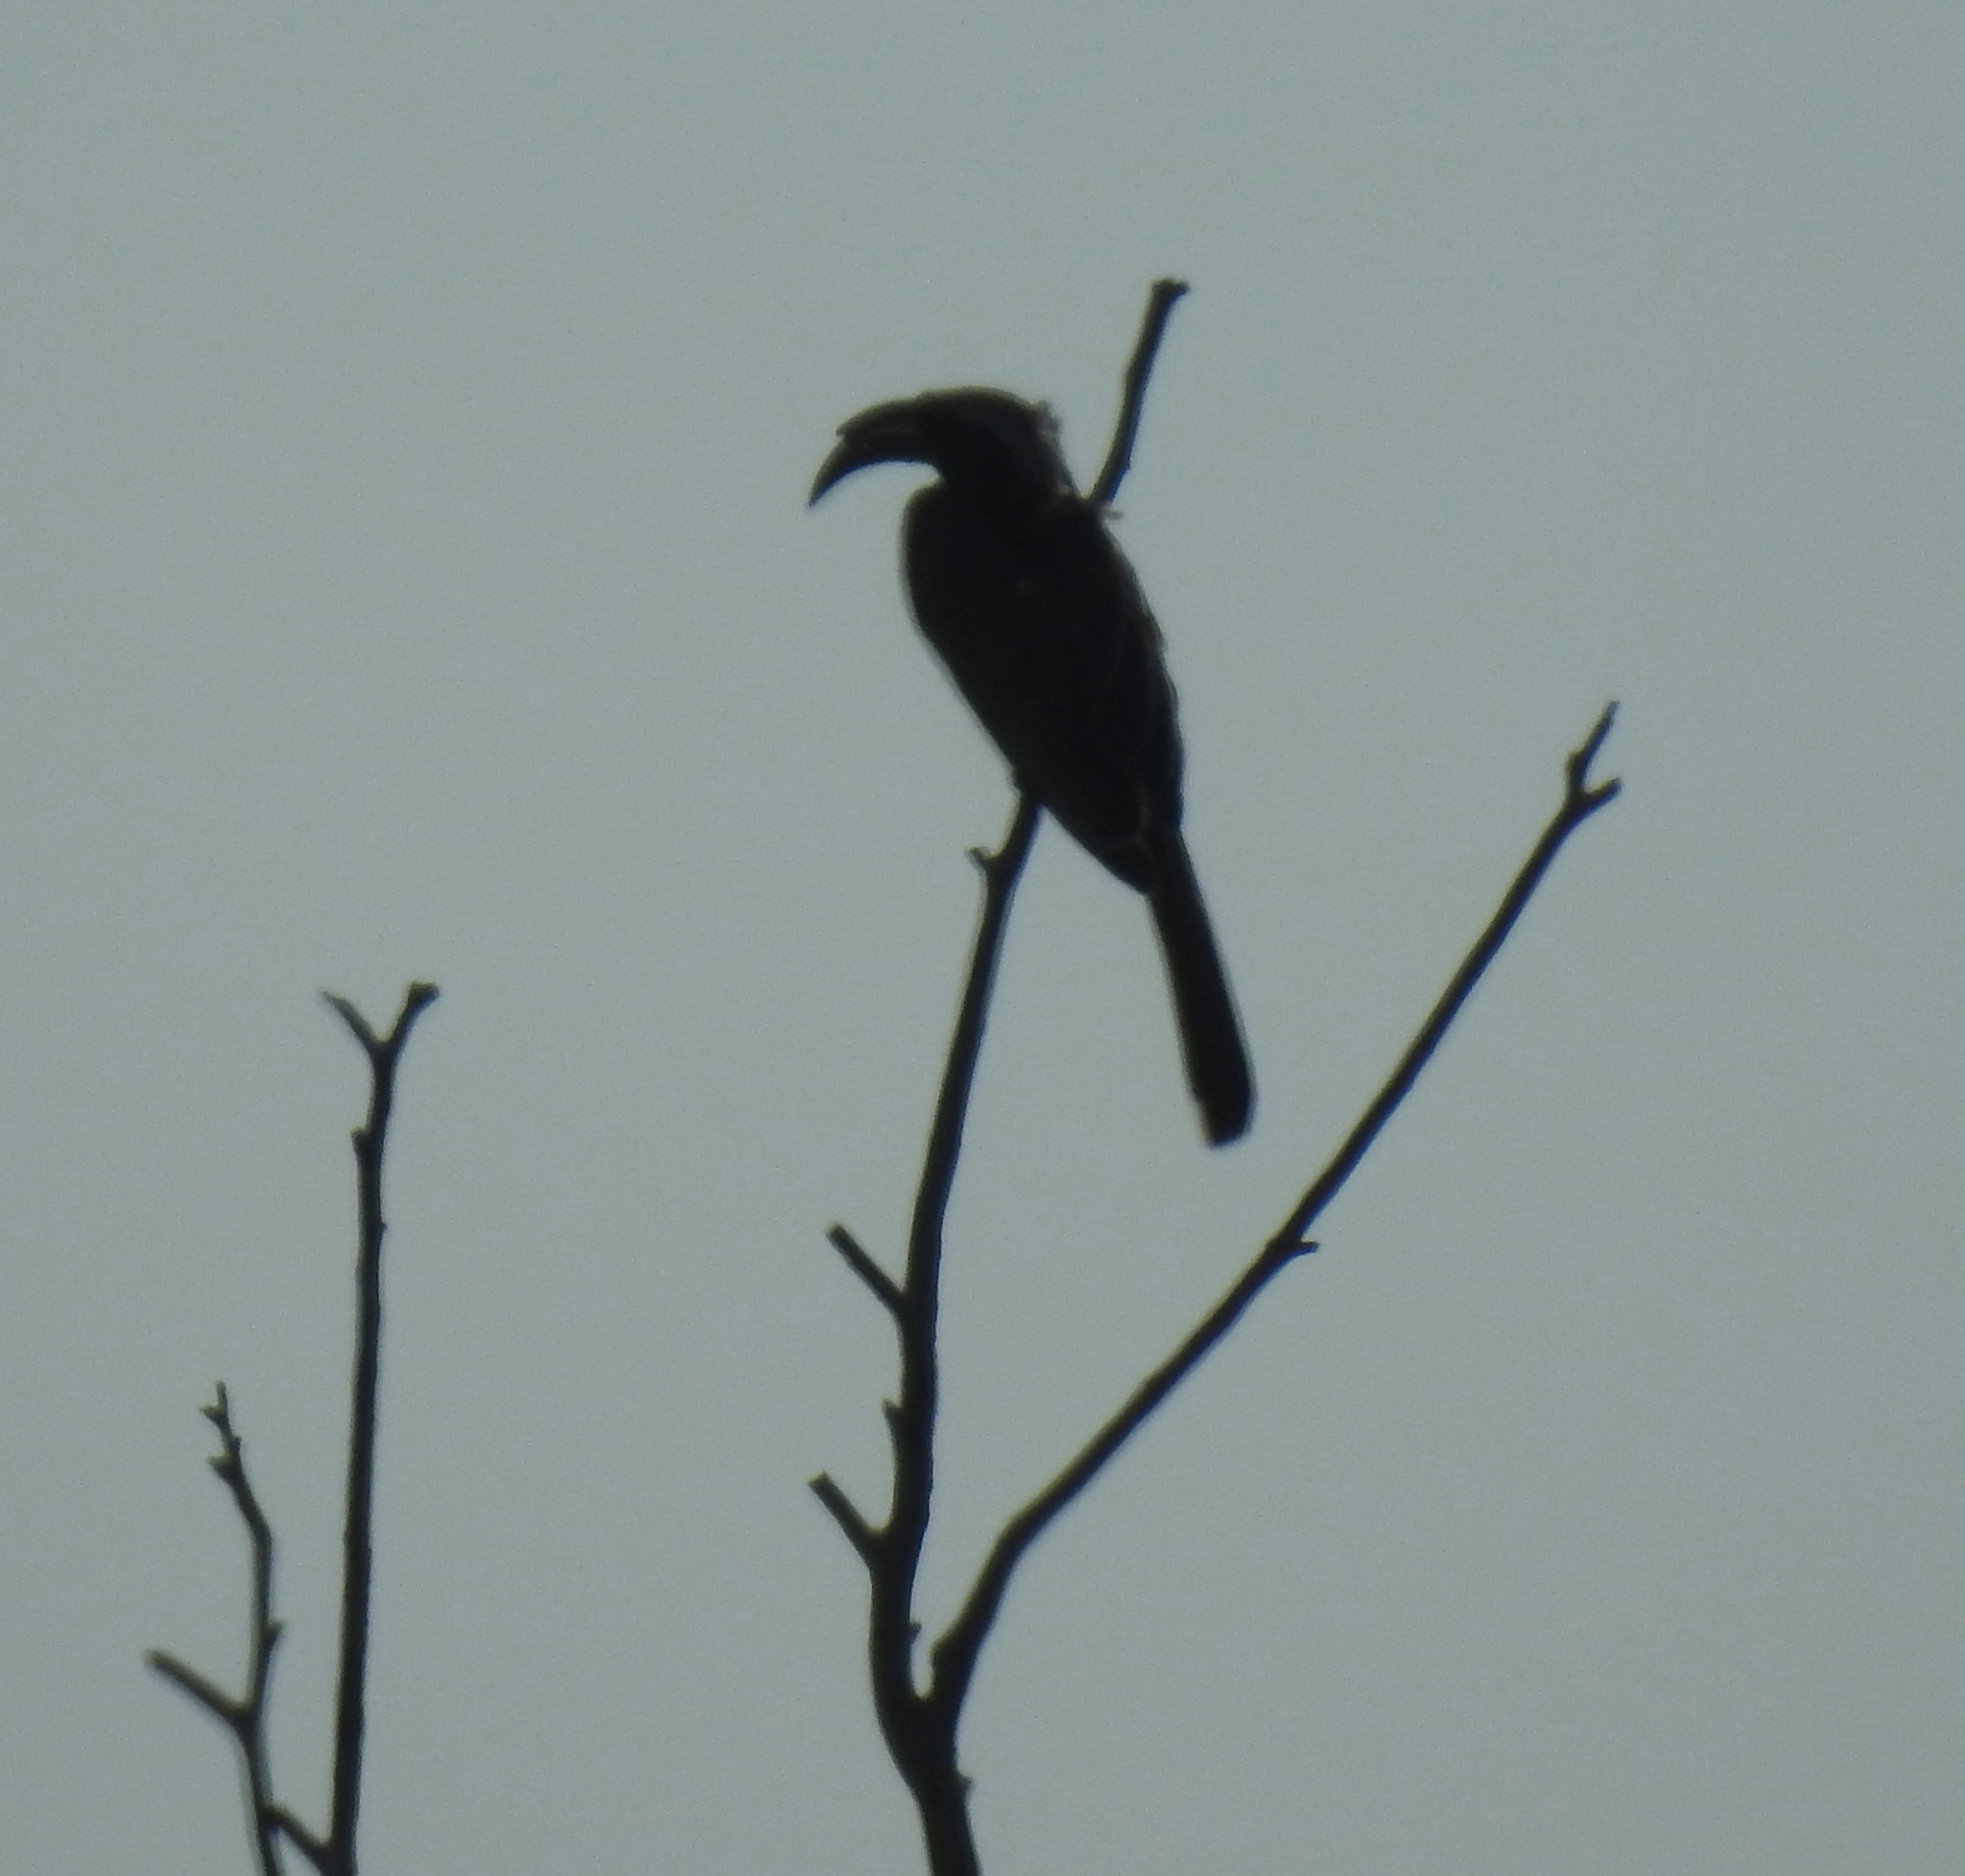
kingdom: Animalia
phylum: Chordata
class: Aves
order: Bucerotiformes
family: Bucerotidae
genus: Lophoceros
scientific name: Lophoceros nasutus
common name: African grey hornbill
